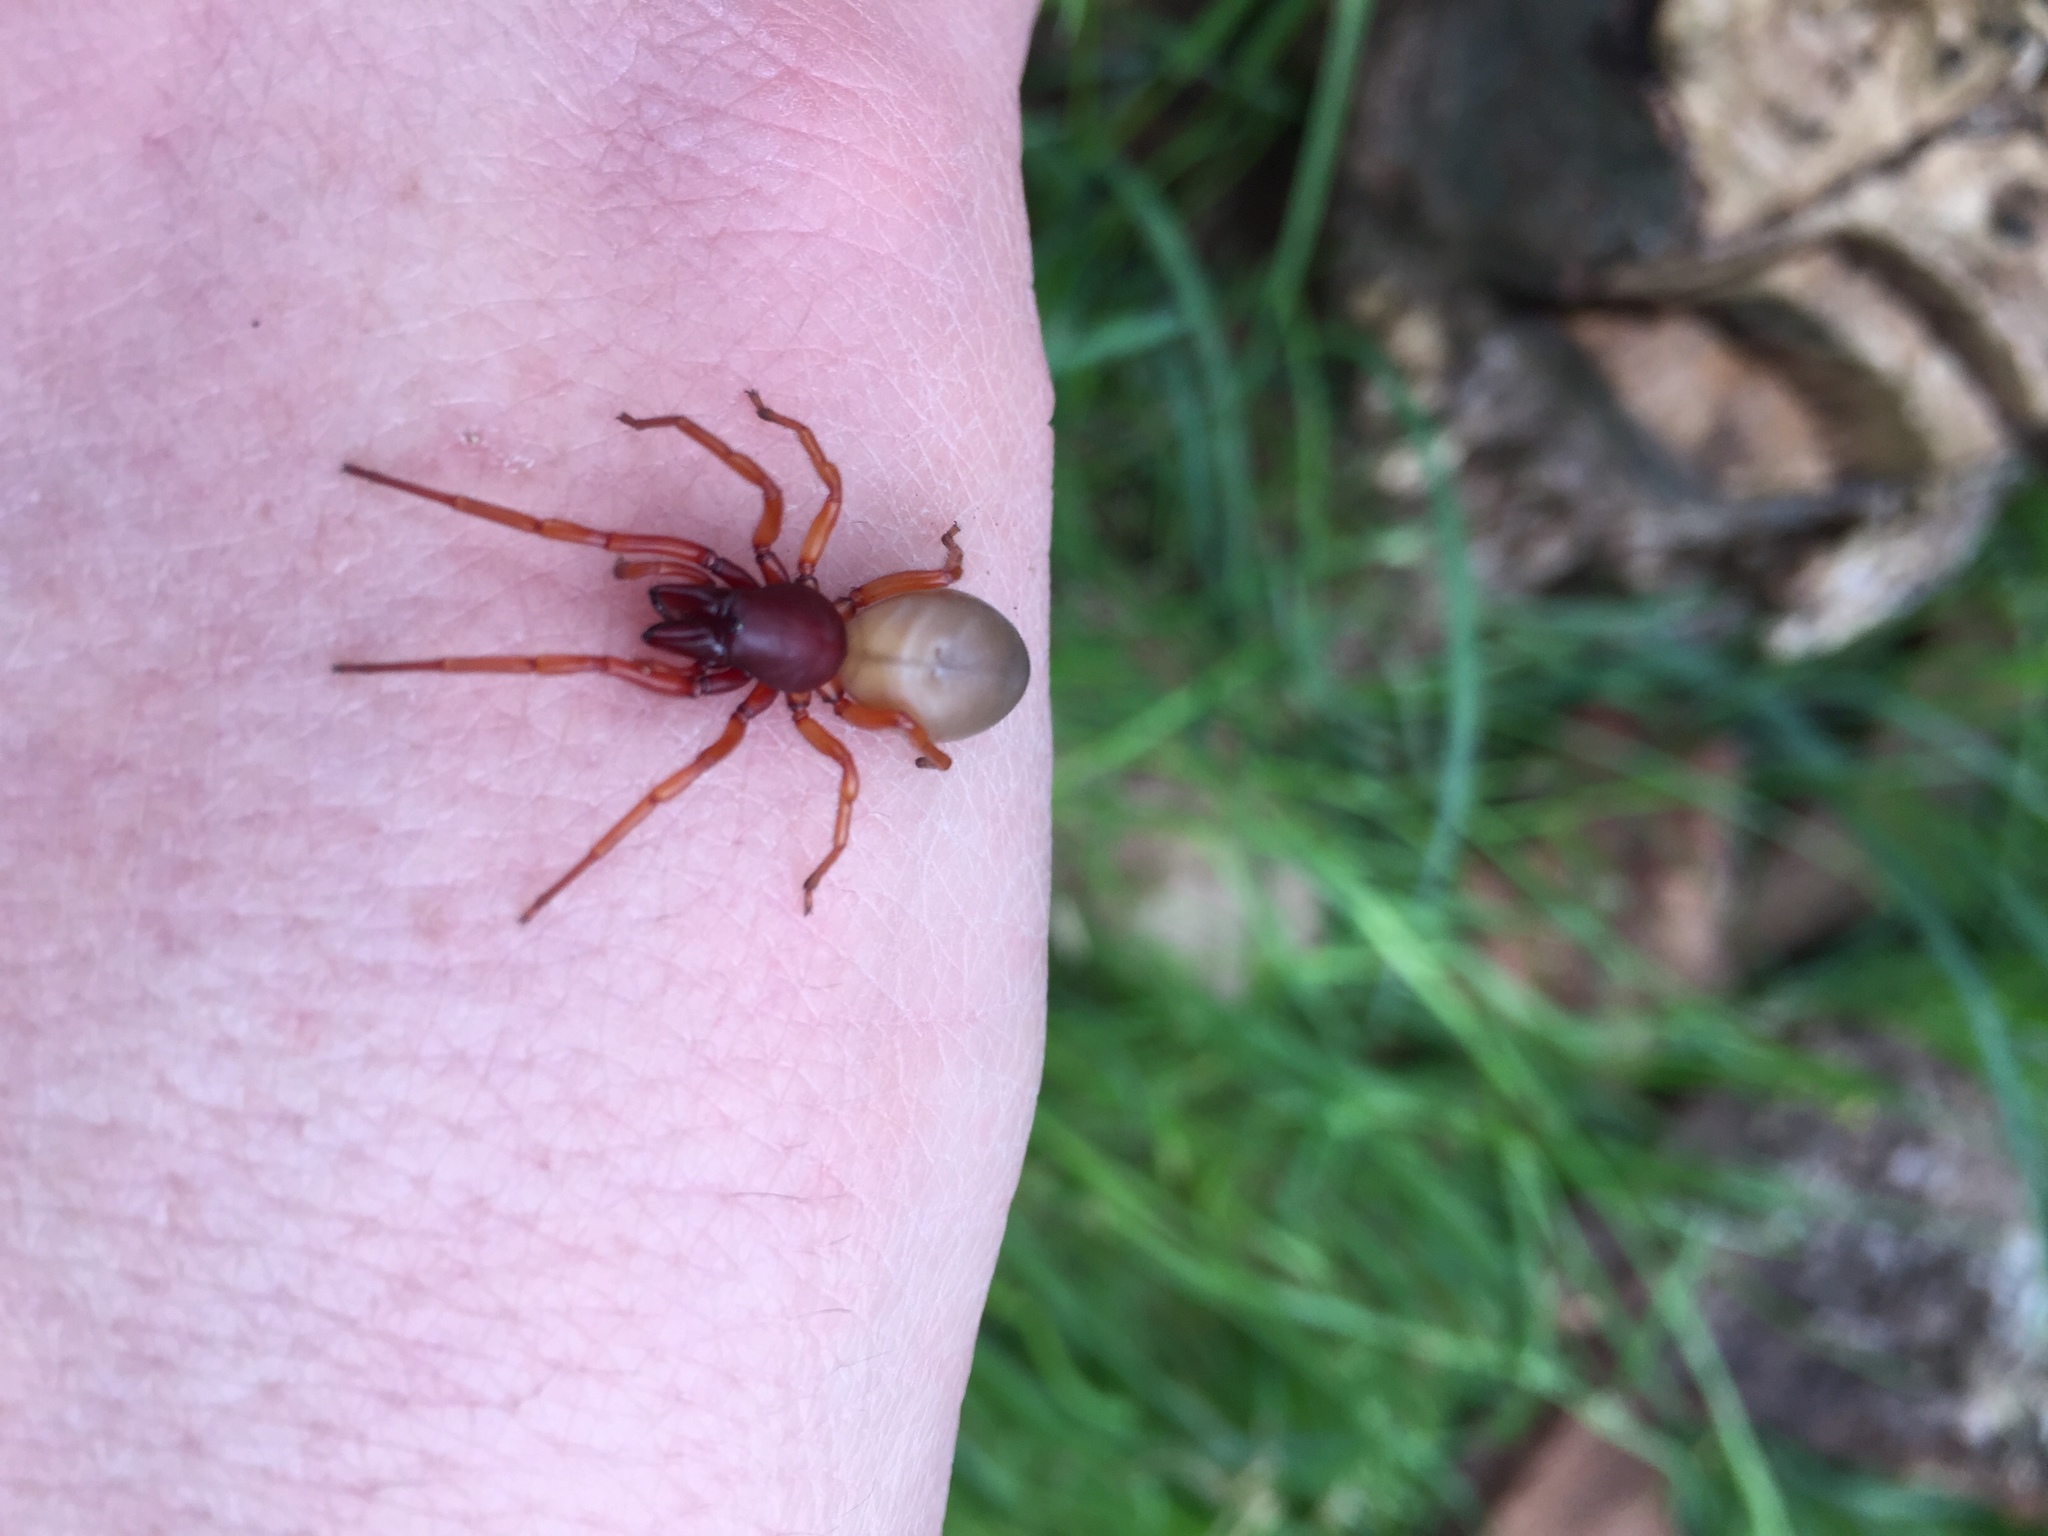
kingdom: Animalia
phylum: Arthropoda
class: Arachnida
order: Araneae
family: Dysderidae
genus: Dysdera
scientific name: Dysdera crocata
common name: Woodlouse spider
